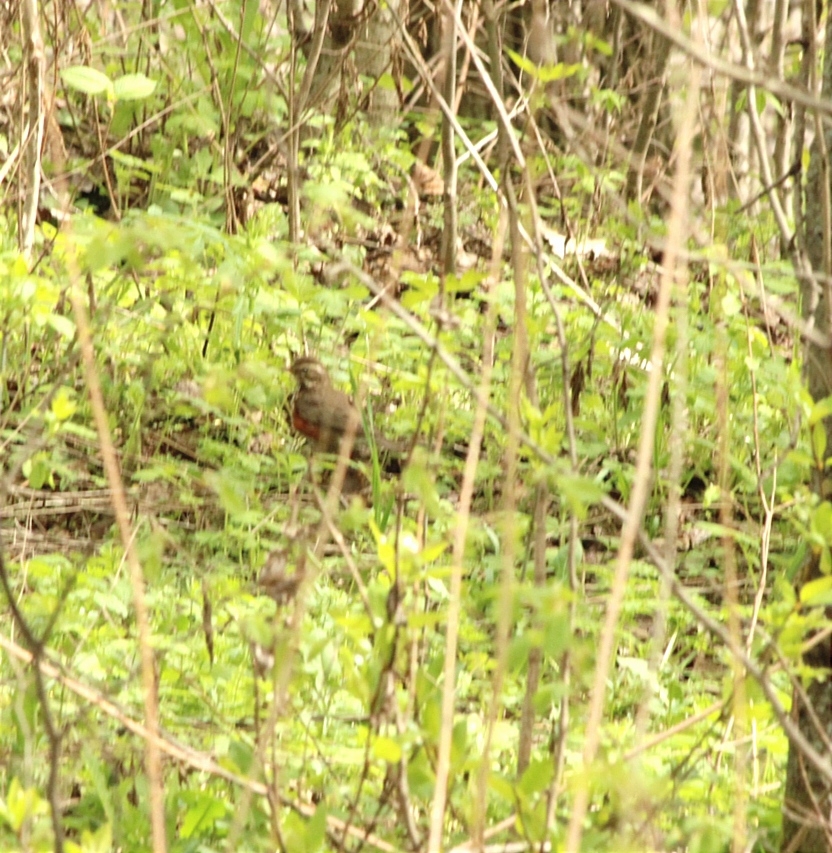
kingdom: Animalia
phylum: Chordata
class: Aves
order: Passeriformes
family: Turdidae
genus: Turdus
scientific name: Turdus iliacus
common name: Redwing
